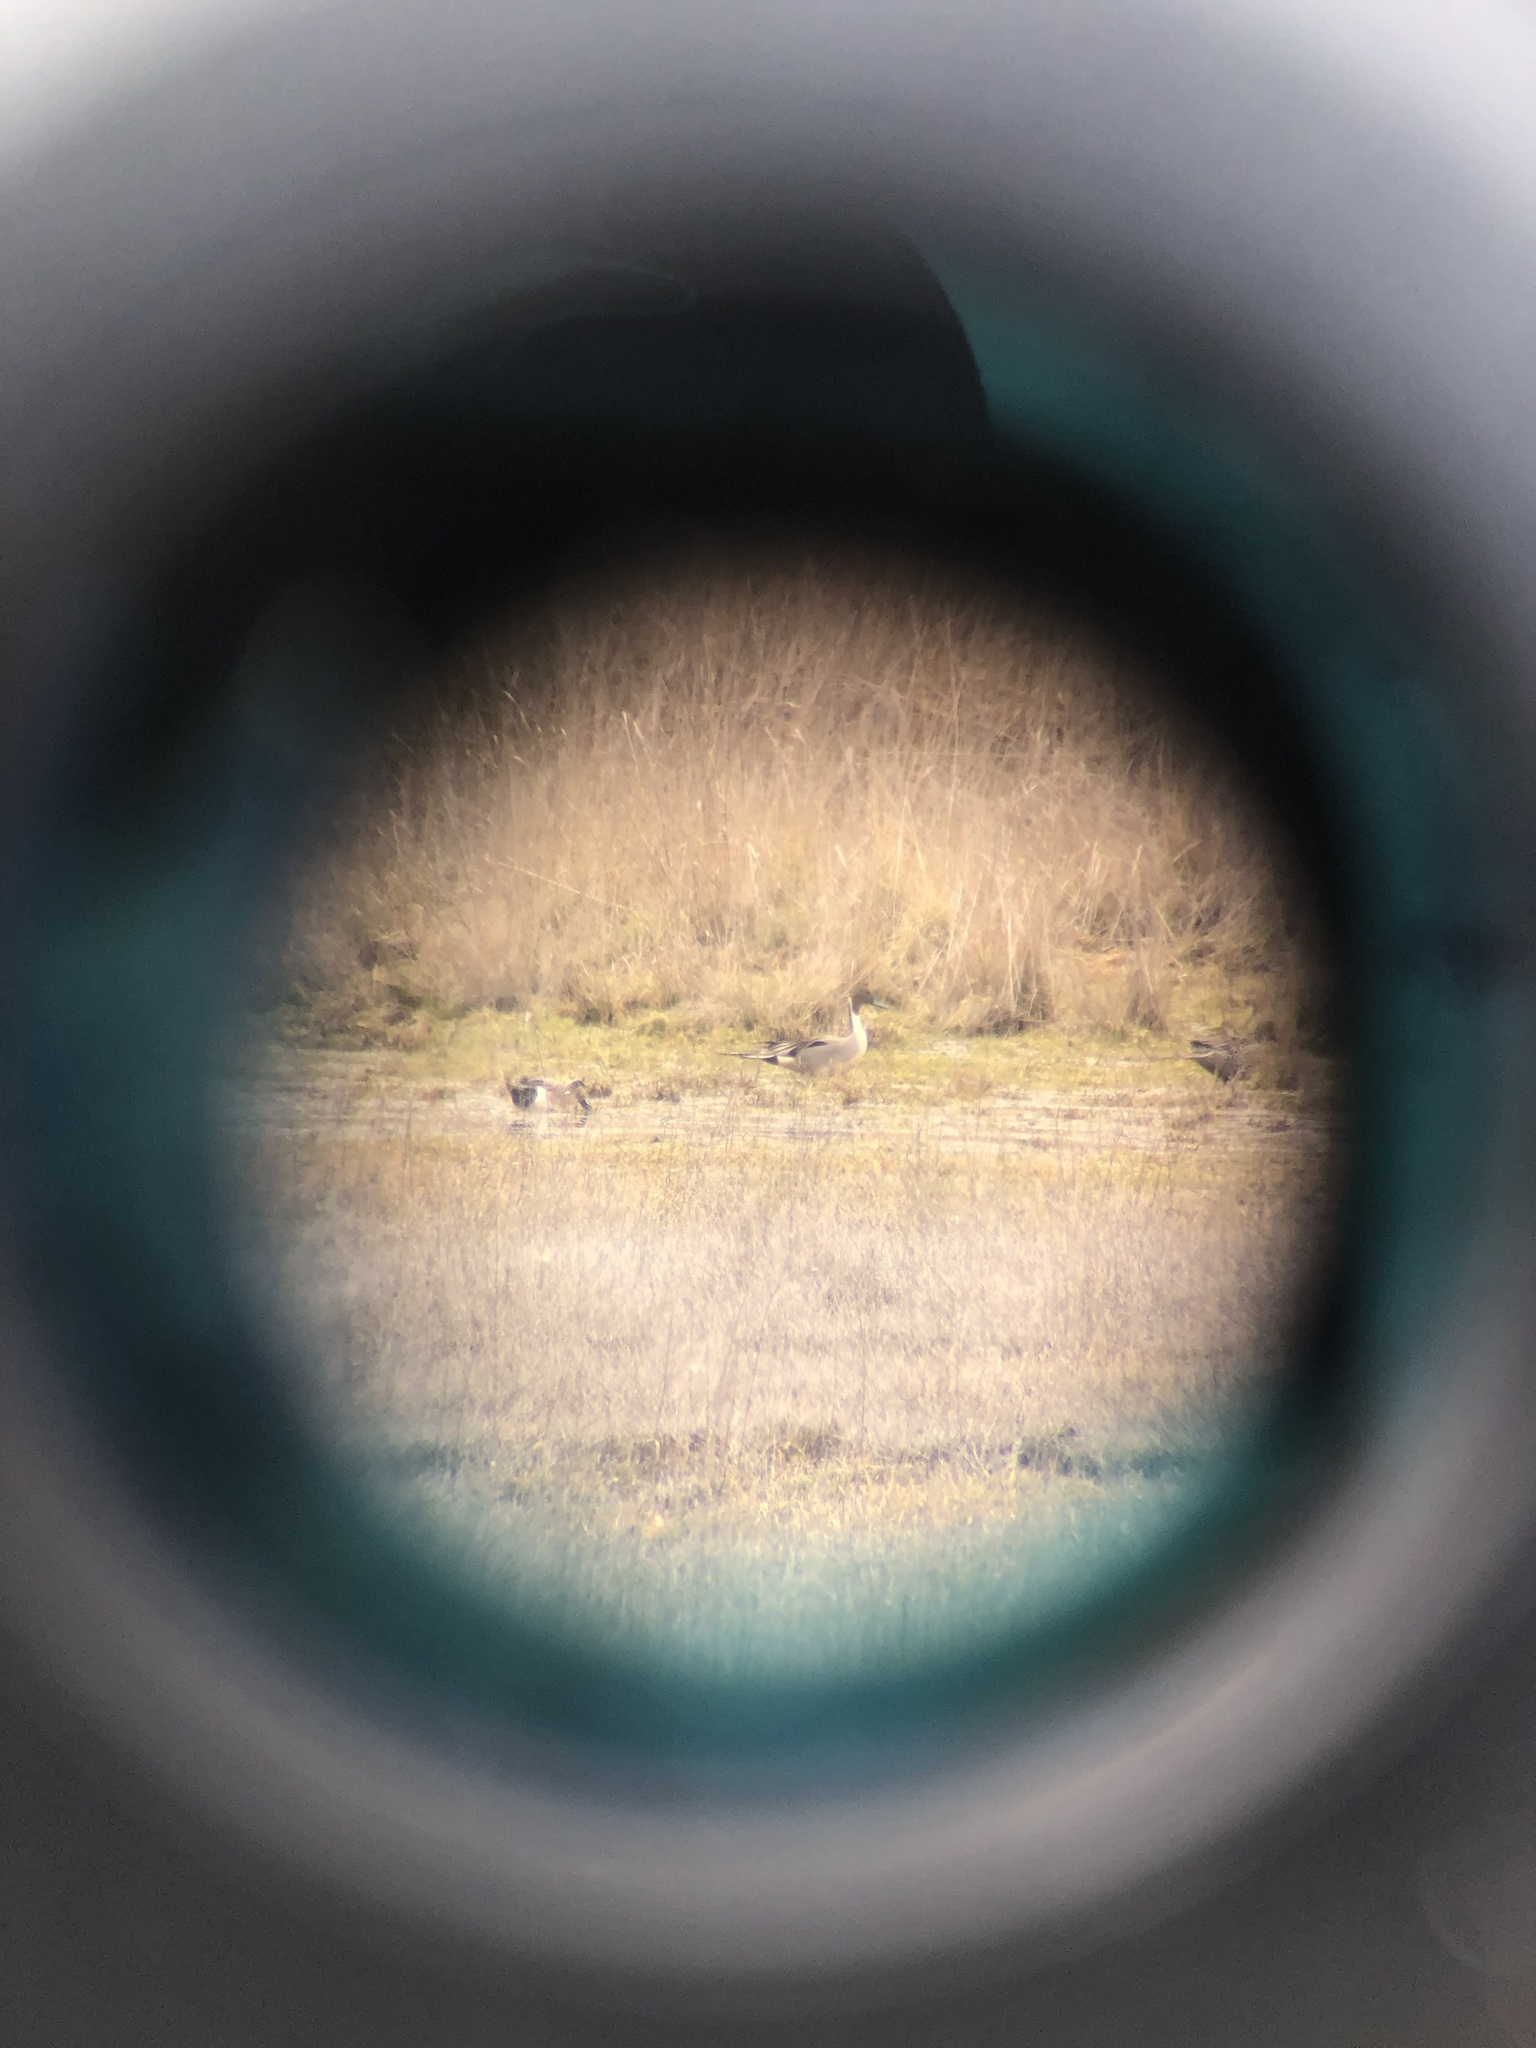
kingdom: Animalia
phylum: Chordata
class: Aves
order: Anseriformes
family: Anatidae
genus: Anas
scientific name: Anas acuta
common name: Northern pintail
